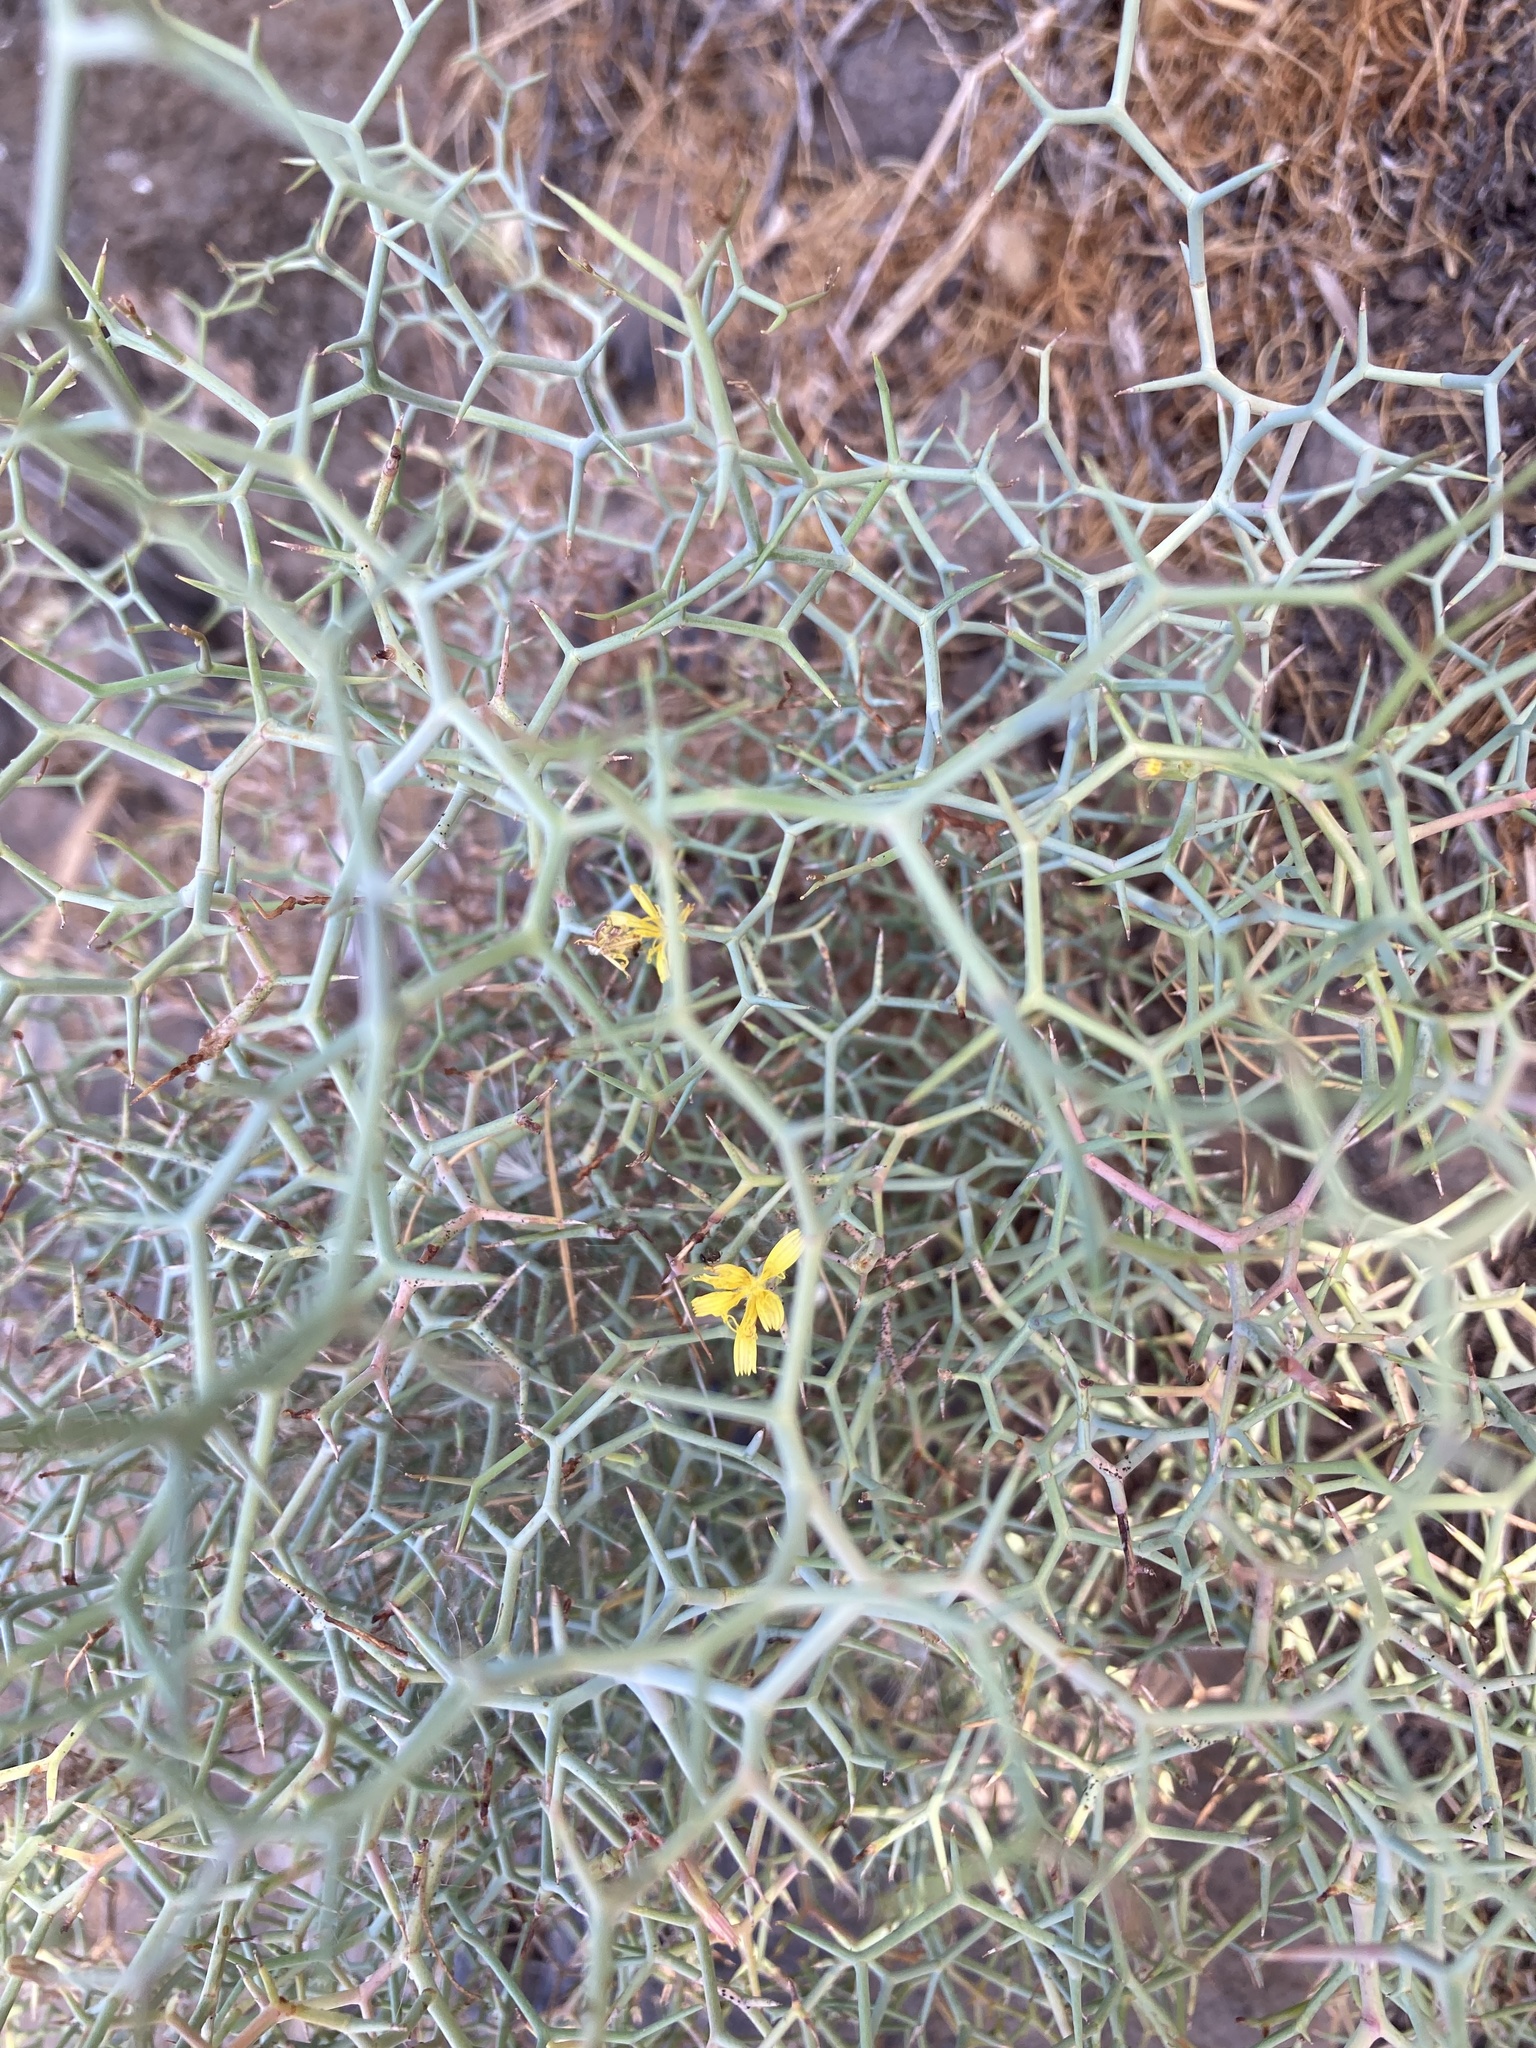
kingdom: Plantae
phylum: Tracheophyta
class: Magnoliopsida
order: Asterales
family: Asteraceae
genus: Launaea
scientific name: Launaea arborescens
